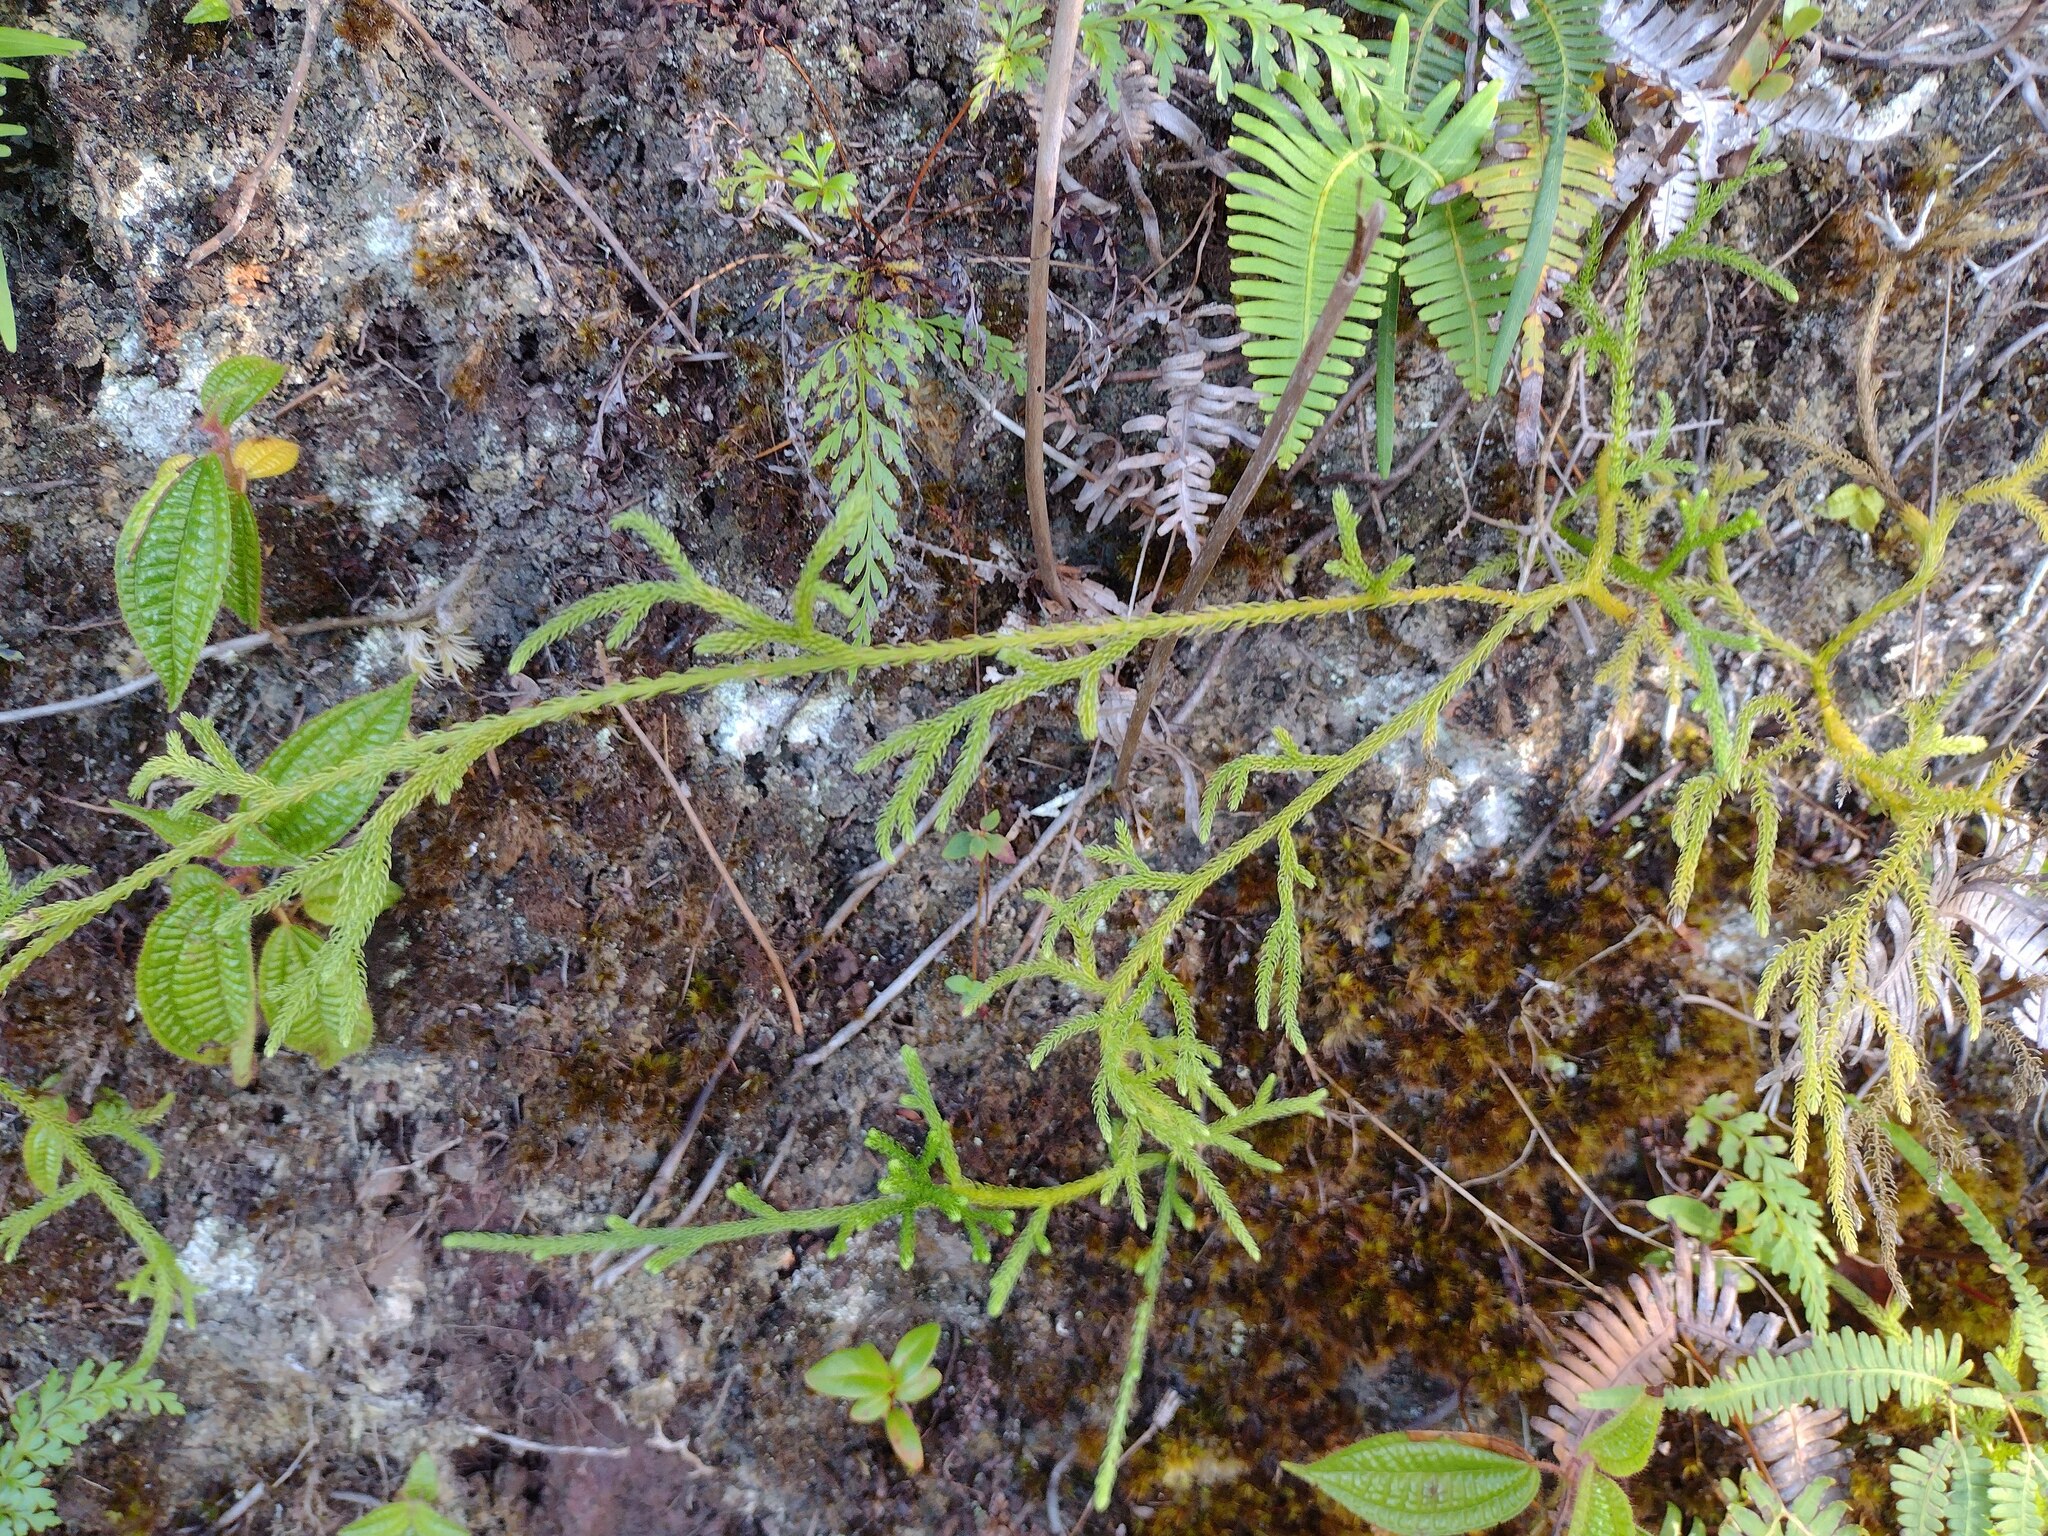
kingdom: Plantae
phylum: Tracheophyta
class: Lycopodiopsida
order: Lycopodiales
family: Lycopodiaceae
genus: Palhinhaea
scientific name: Palhinhaea cernua
